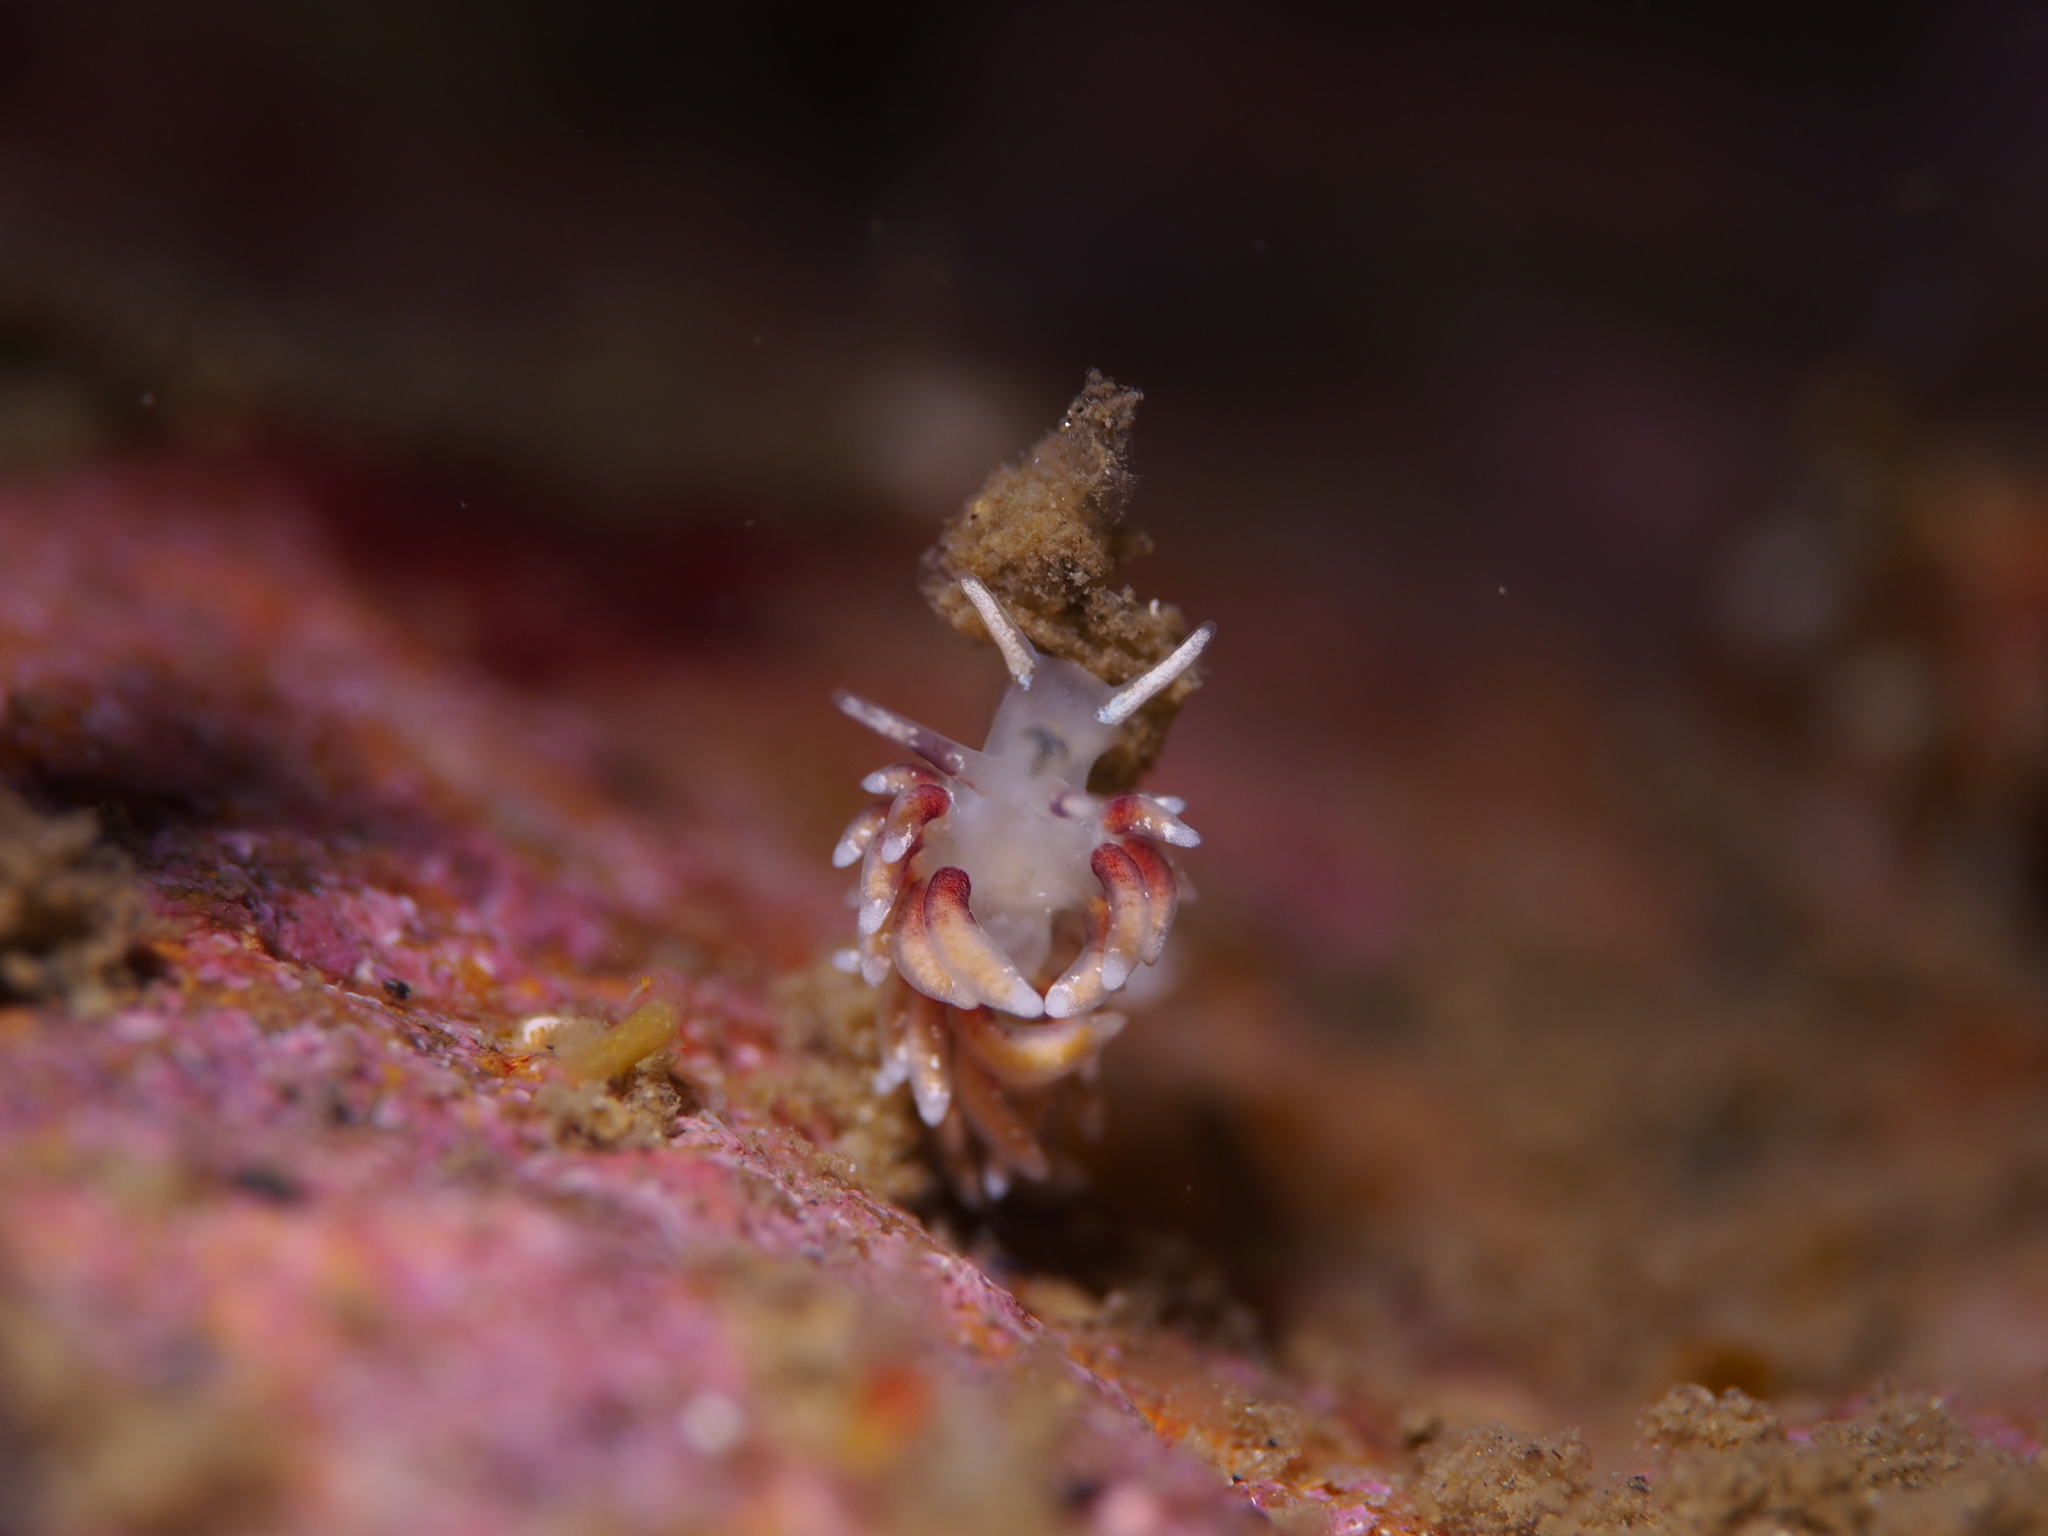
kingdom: Animalia
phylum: Mollusca
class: Gastropoda
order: Nudibranchia
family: Trinchesiidae
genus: Rubramoena
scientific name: Rubramoena rubescens
